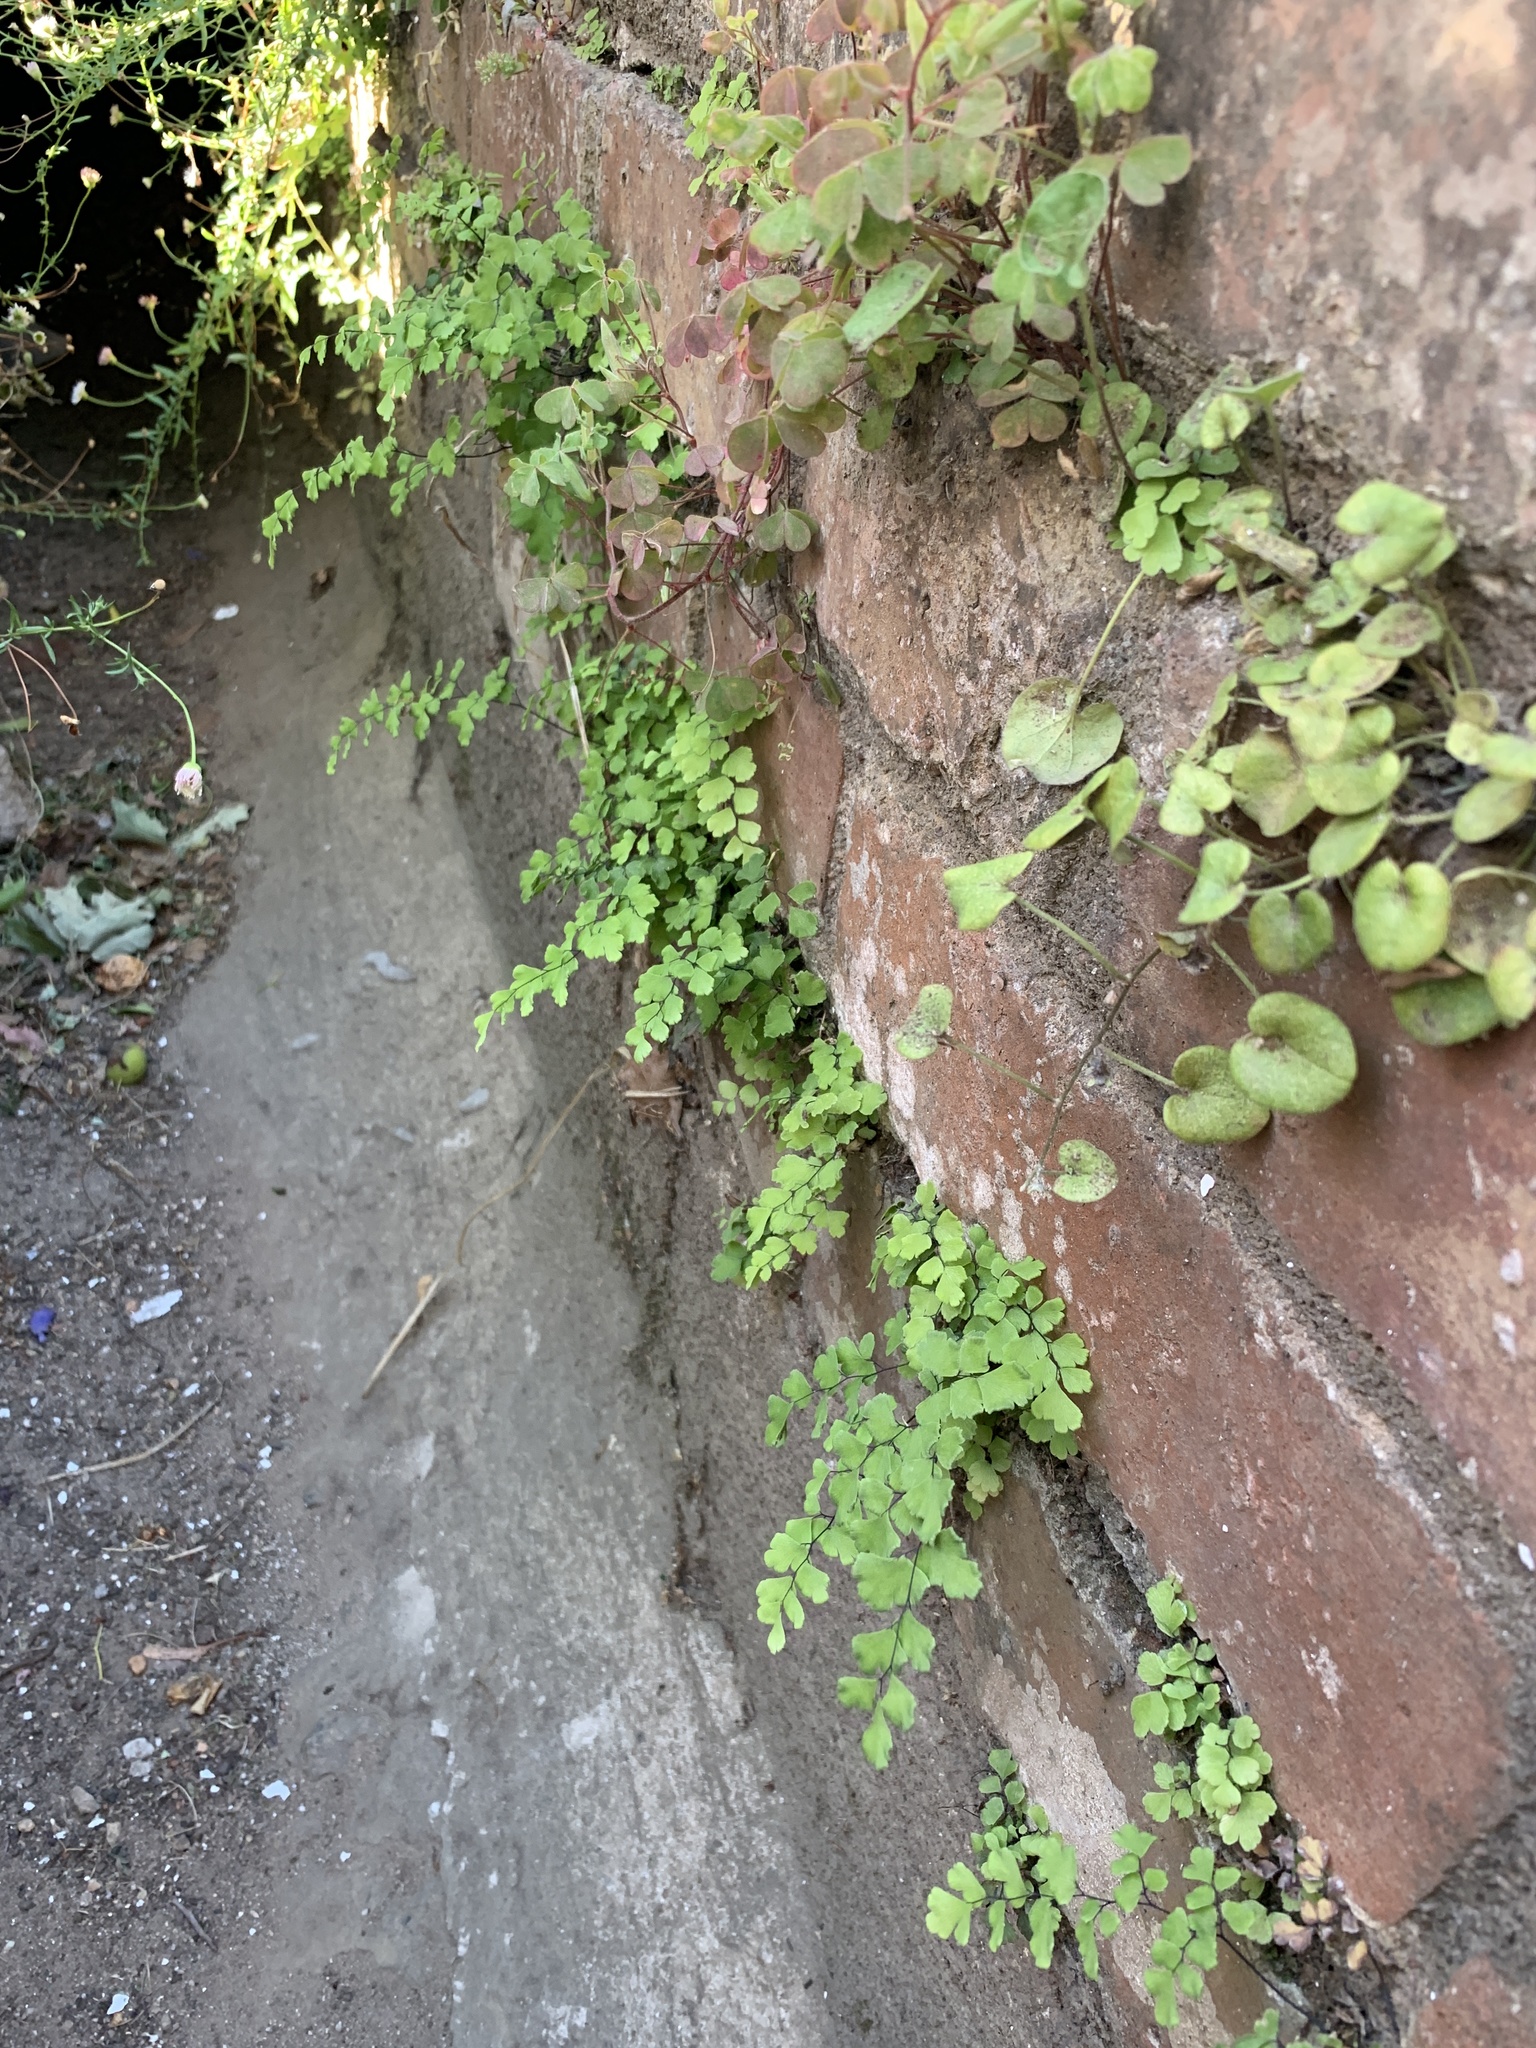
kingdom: Plantae
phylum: Tracheophyta
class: Polypodiopsida
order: Polypodiales
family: Pteridaceae
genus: Adiantum
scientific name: Adiantum capillus-veneris
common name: Maidenhair fern
